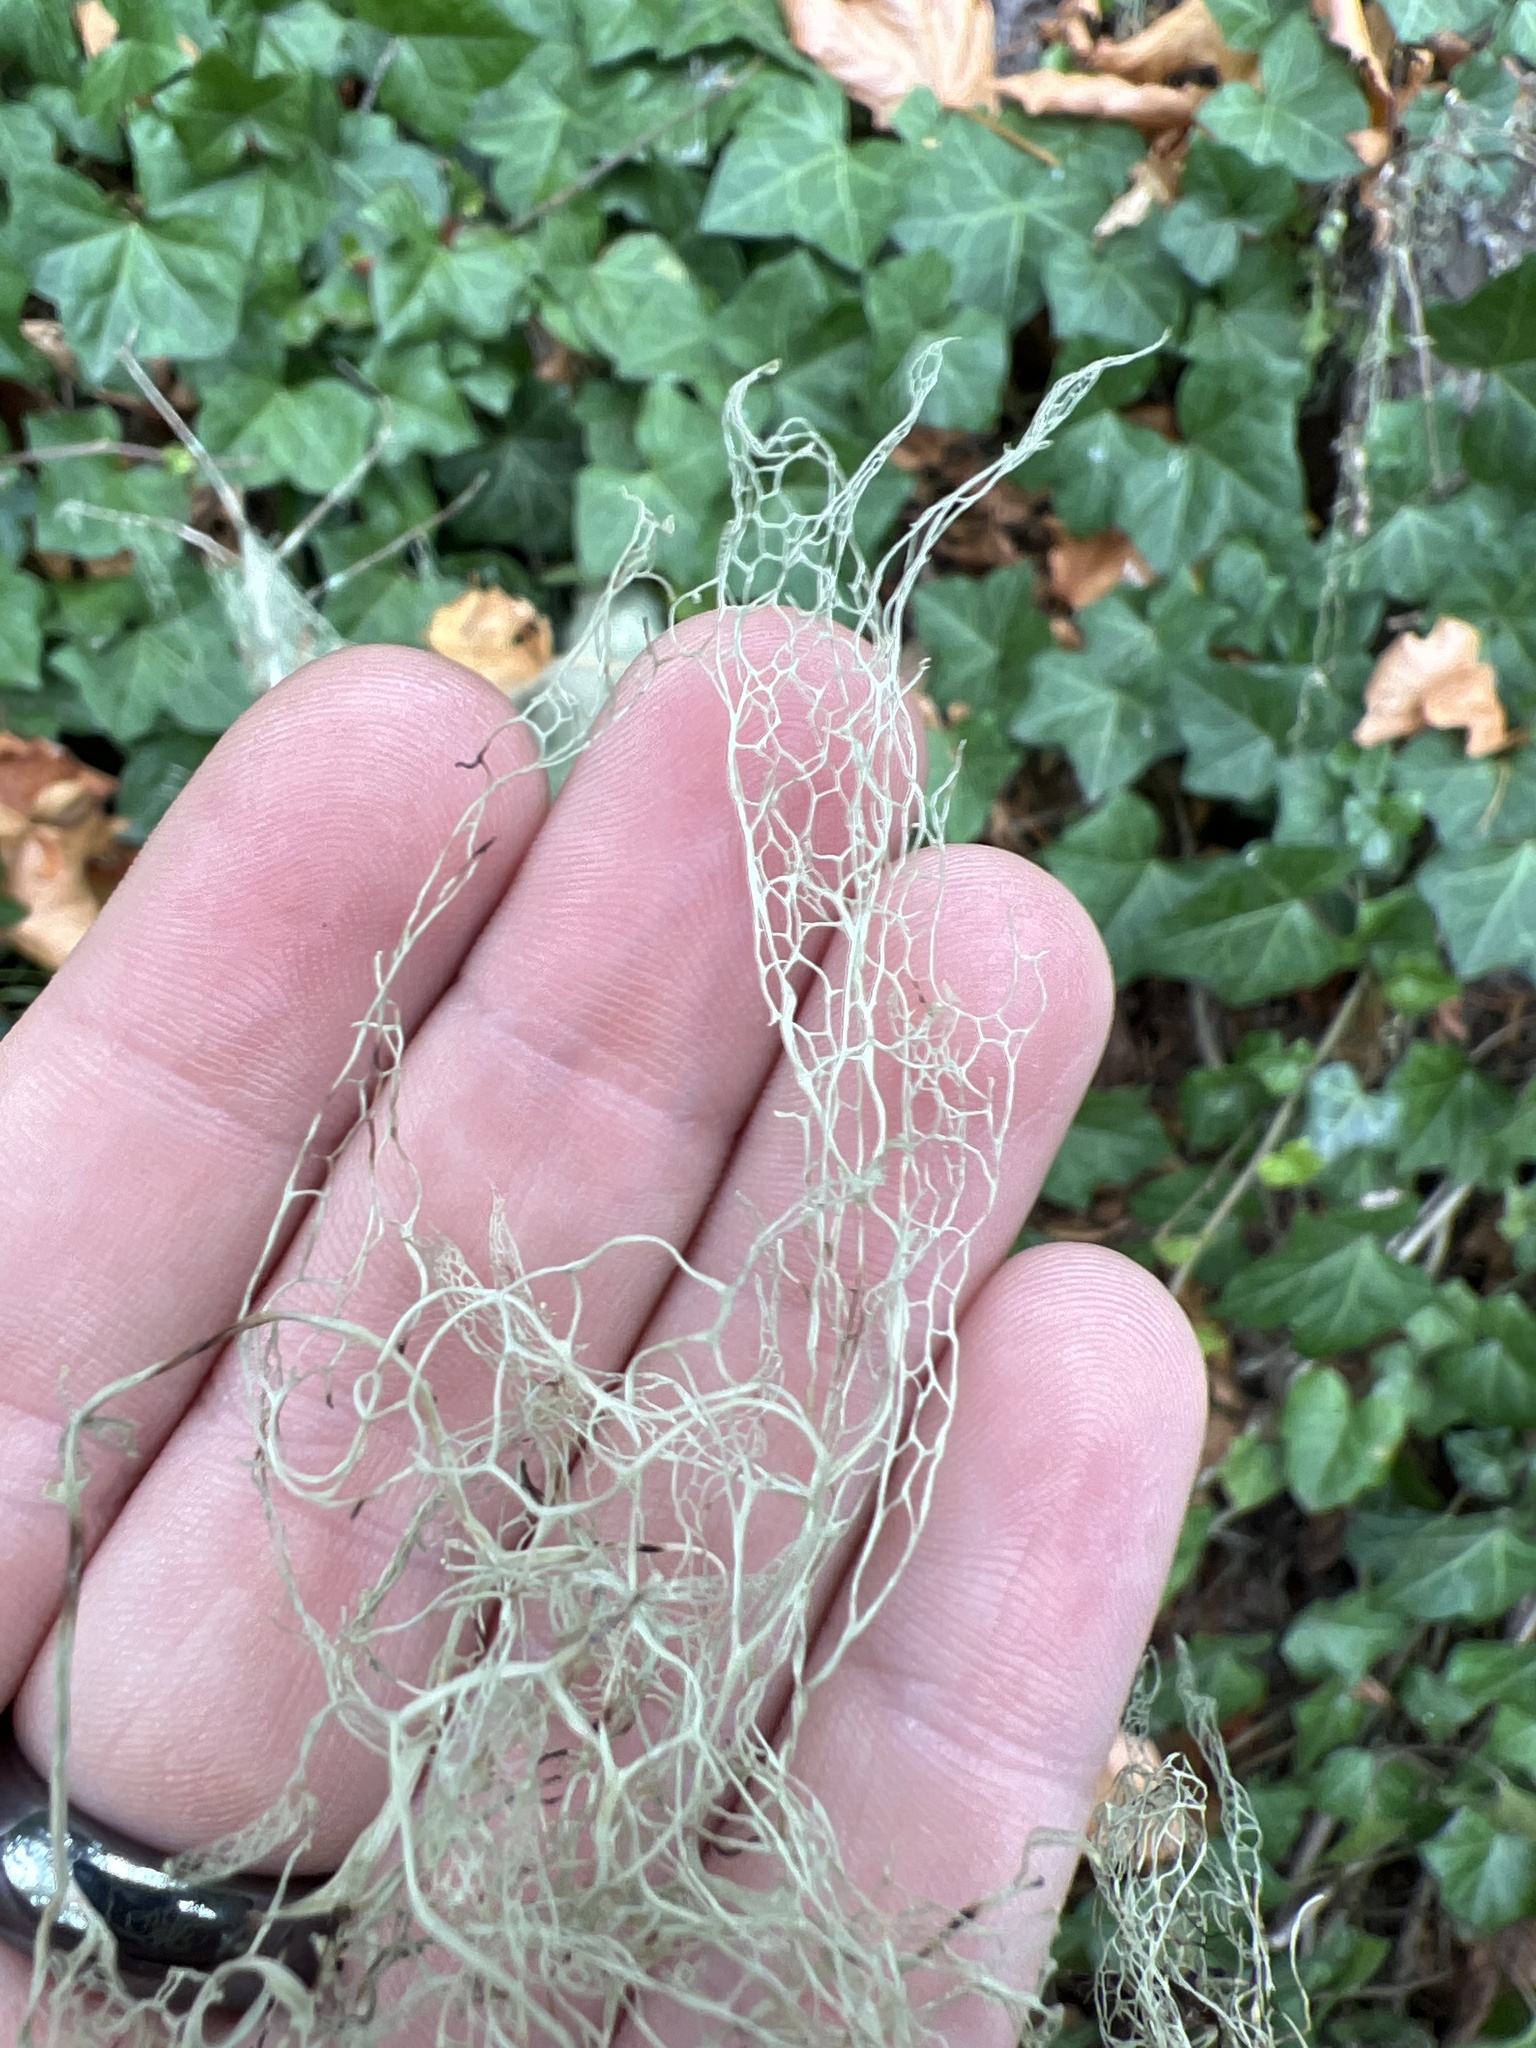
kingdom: Fungi
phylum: Ascomycota
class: Lecanoromycetes
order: Lecanorales
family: Ramalinaceae
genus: Ramalina
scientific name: Ramalina menziesii
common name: Lace lichen
